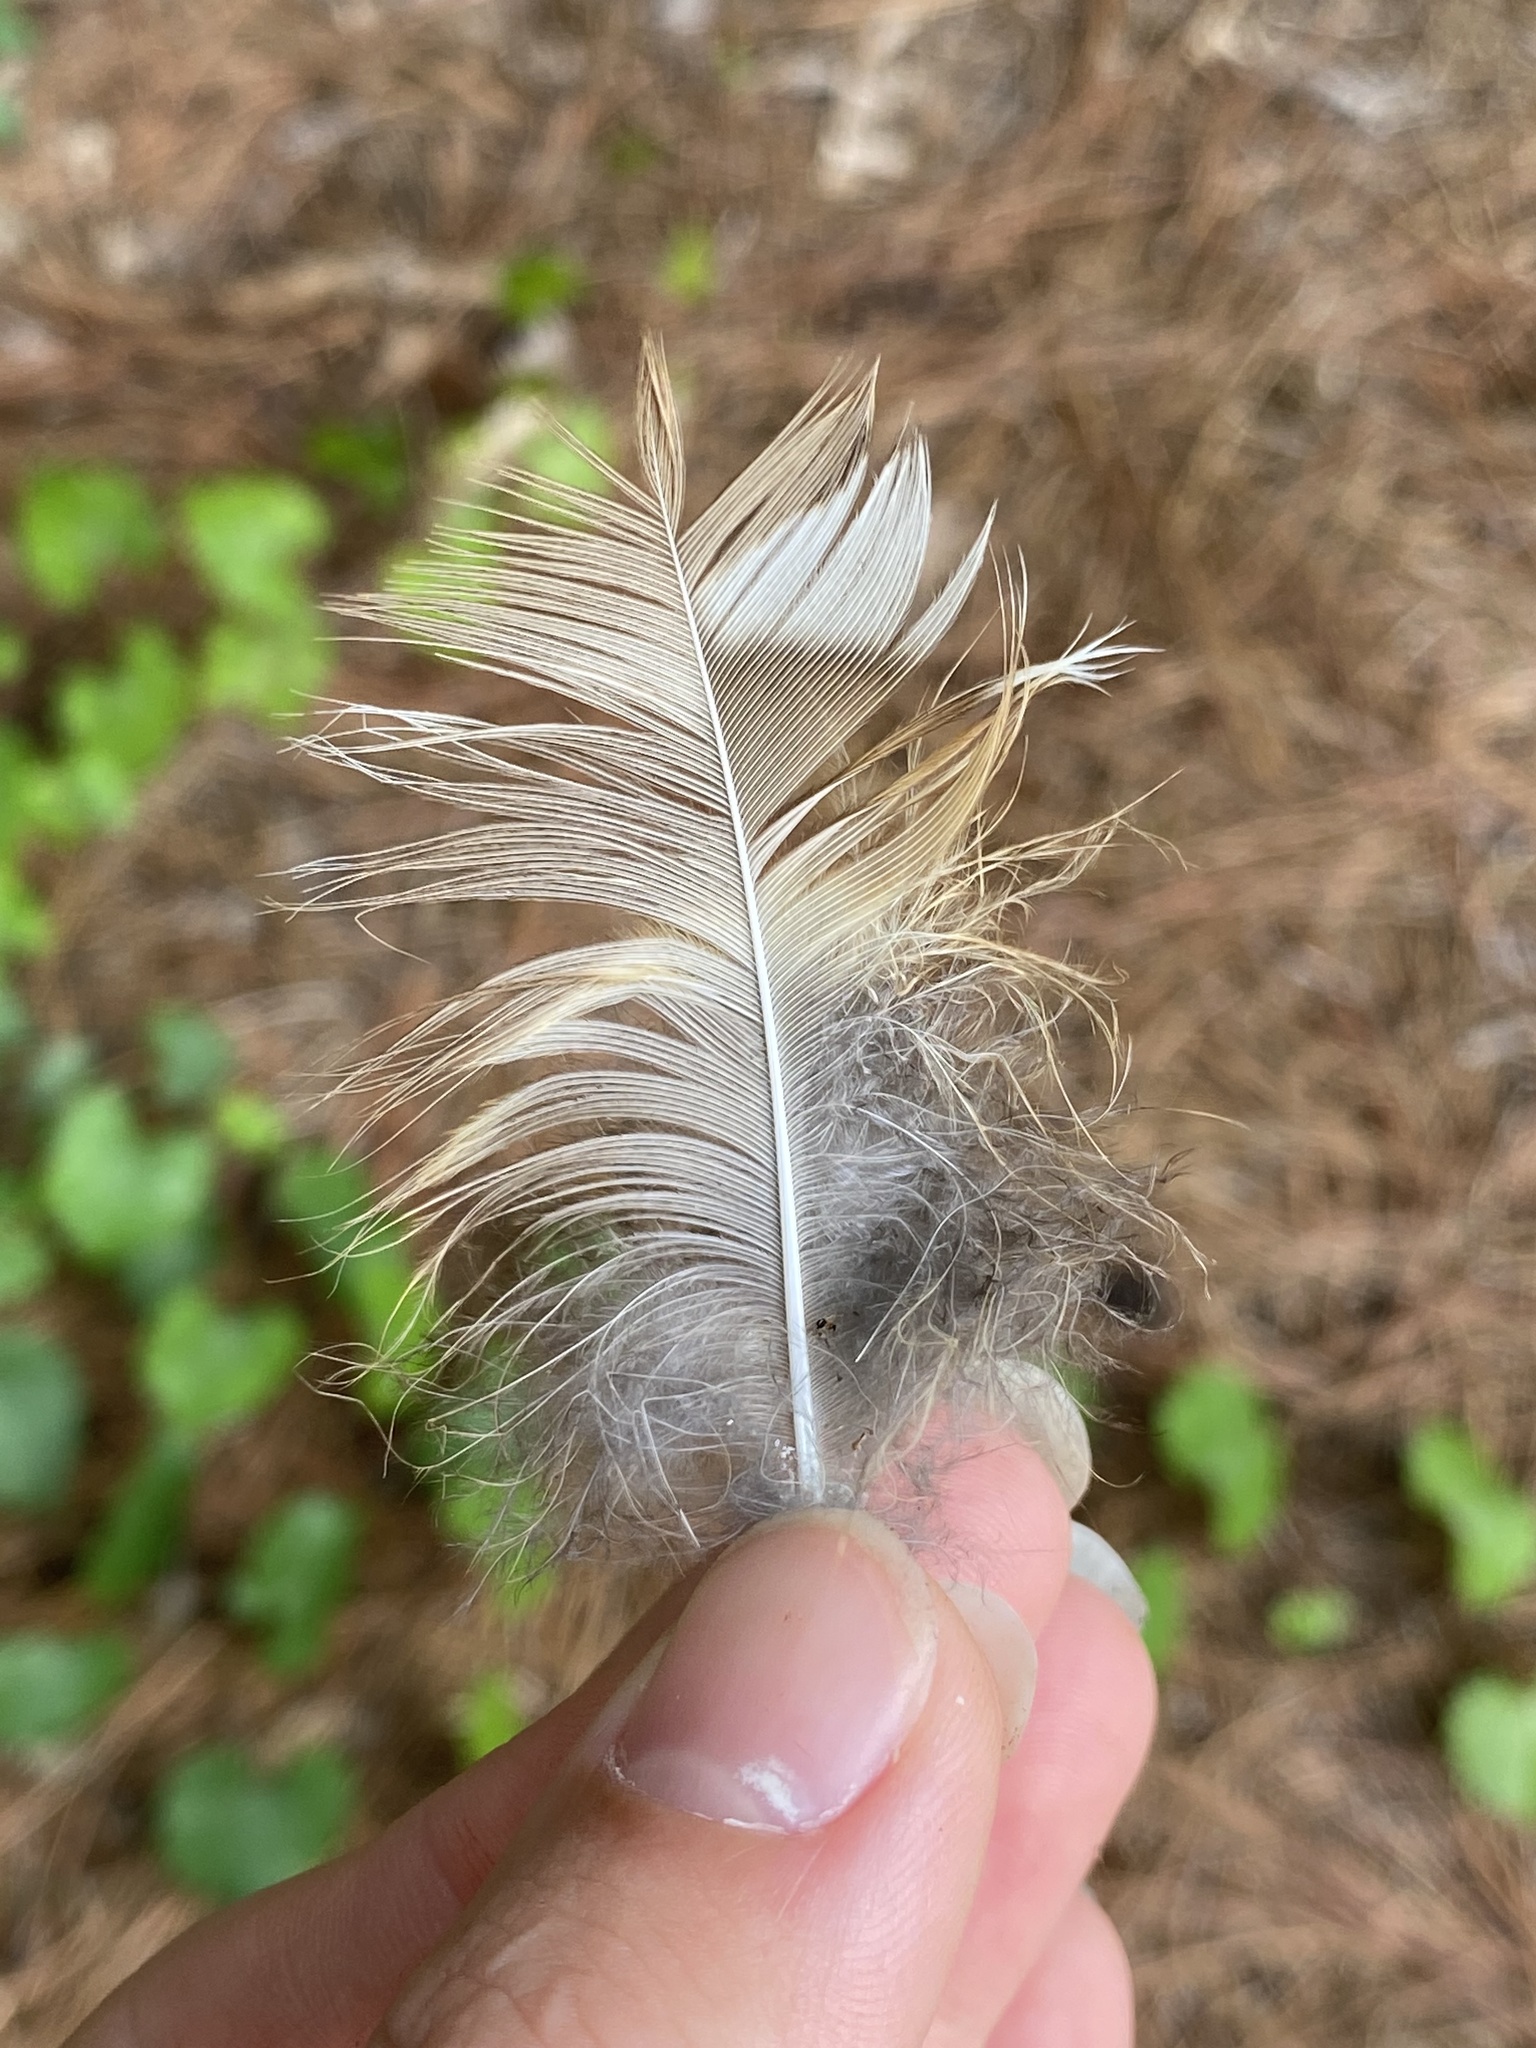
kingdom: Animalia
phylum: Chordata
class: Aves
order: Strigiformes
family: Strigidae
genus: Strix
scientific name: Strix varia
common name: Barred owl
